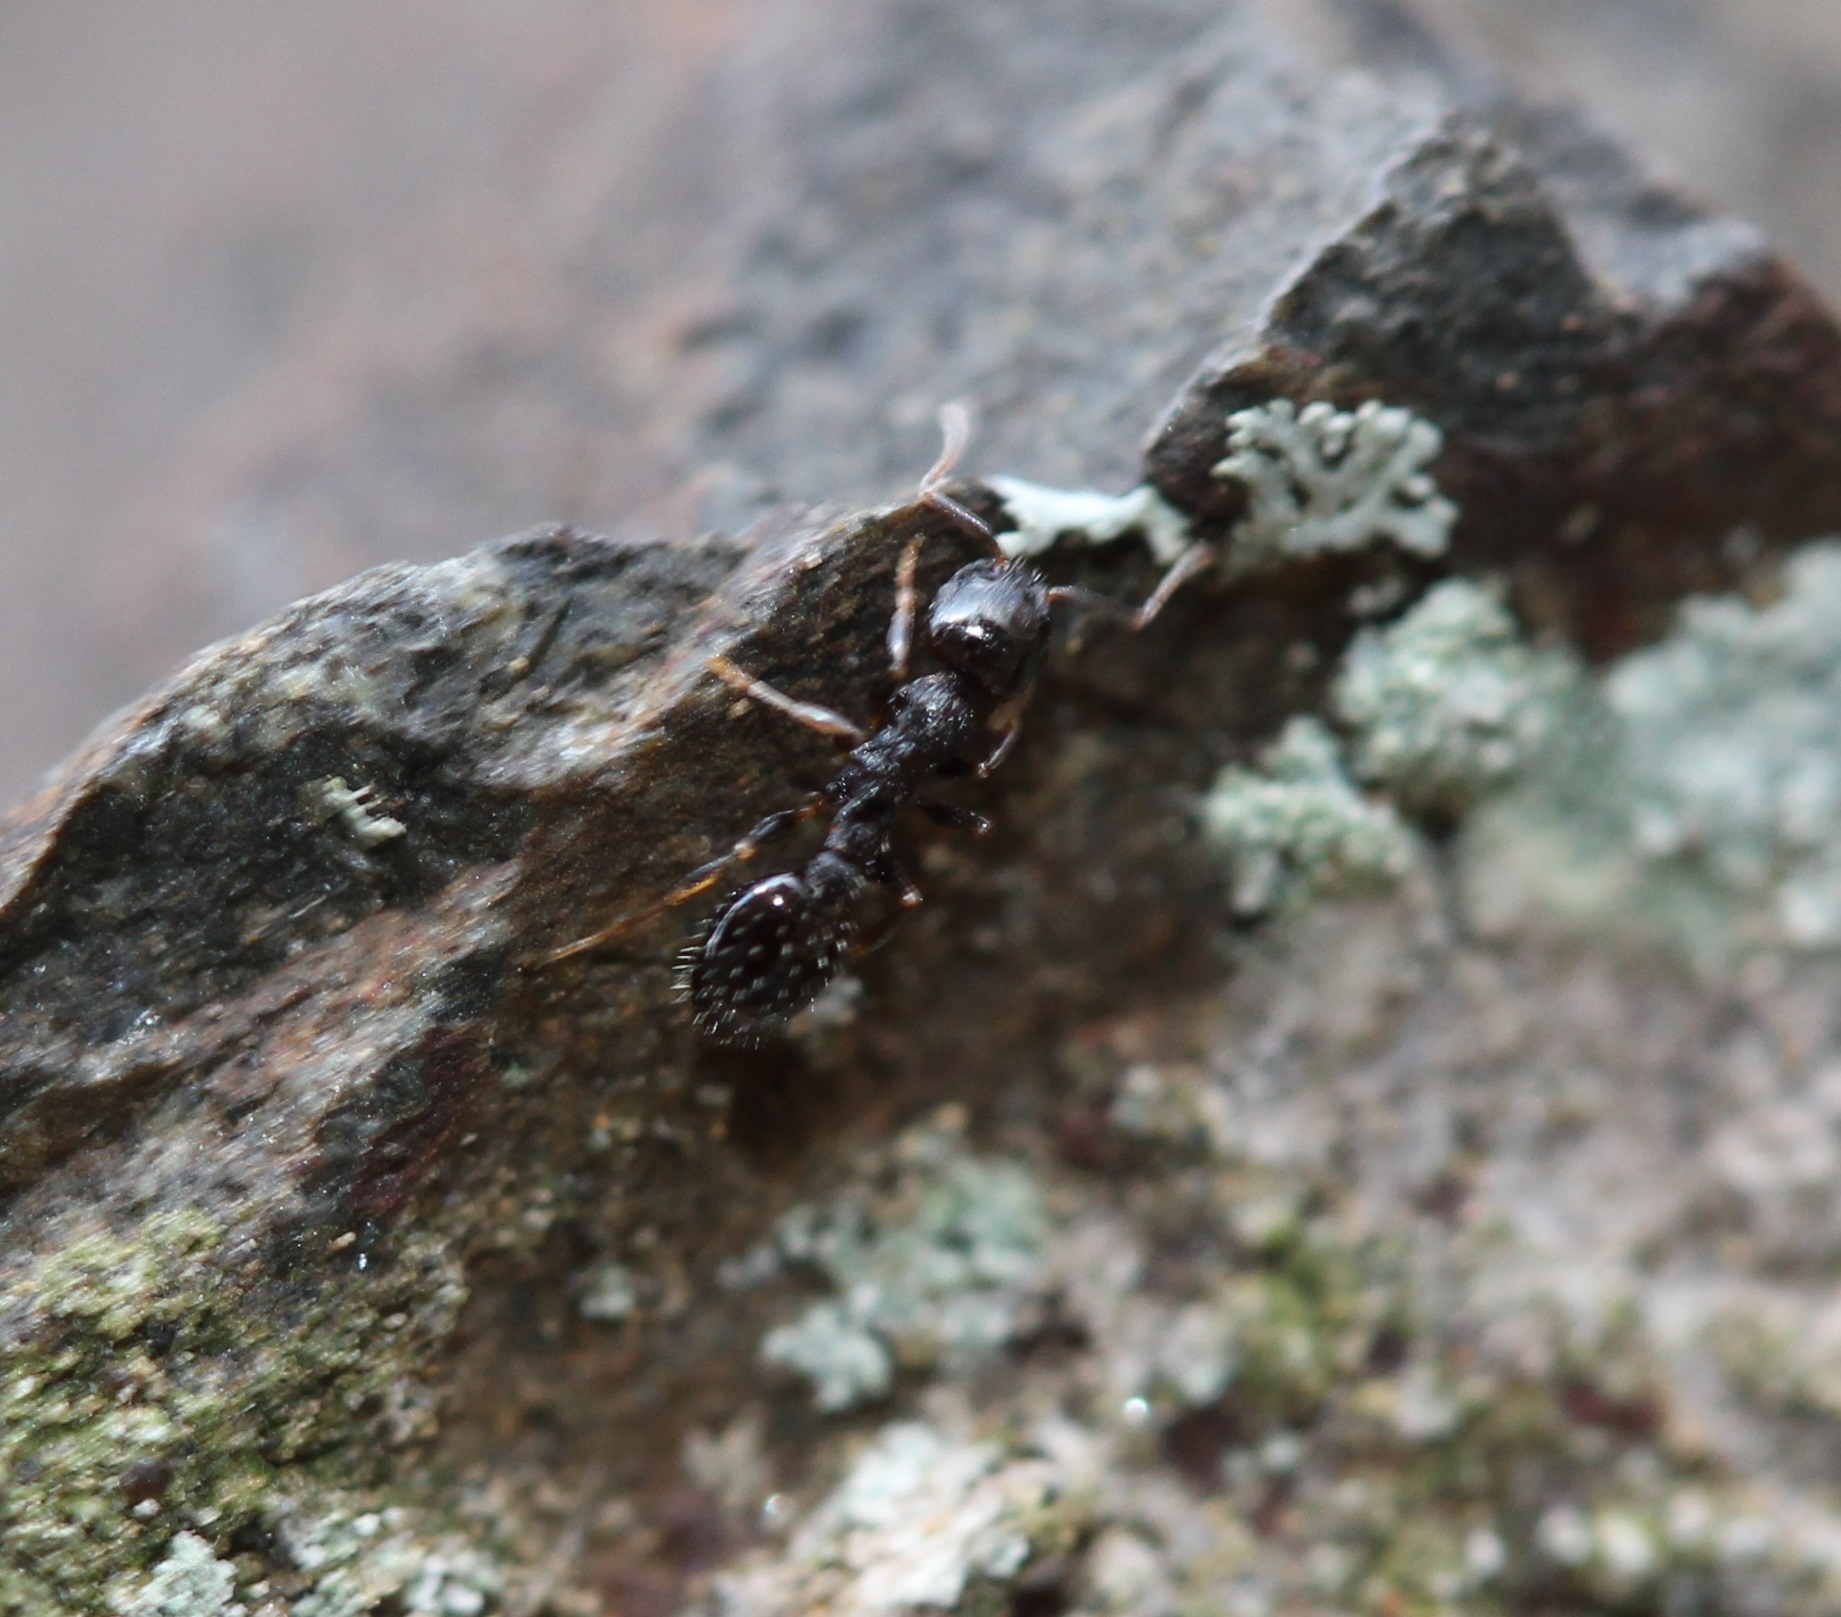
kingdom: Animalia
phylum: Arthropoda
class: Insecta
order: Hymenoptera
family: Formicidae
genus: Temnothorax
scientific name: Temnothorax longispinosus
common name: Long-spined acorn ant
